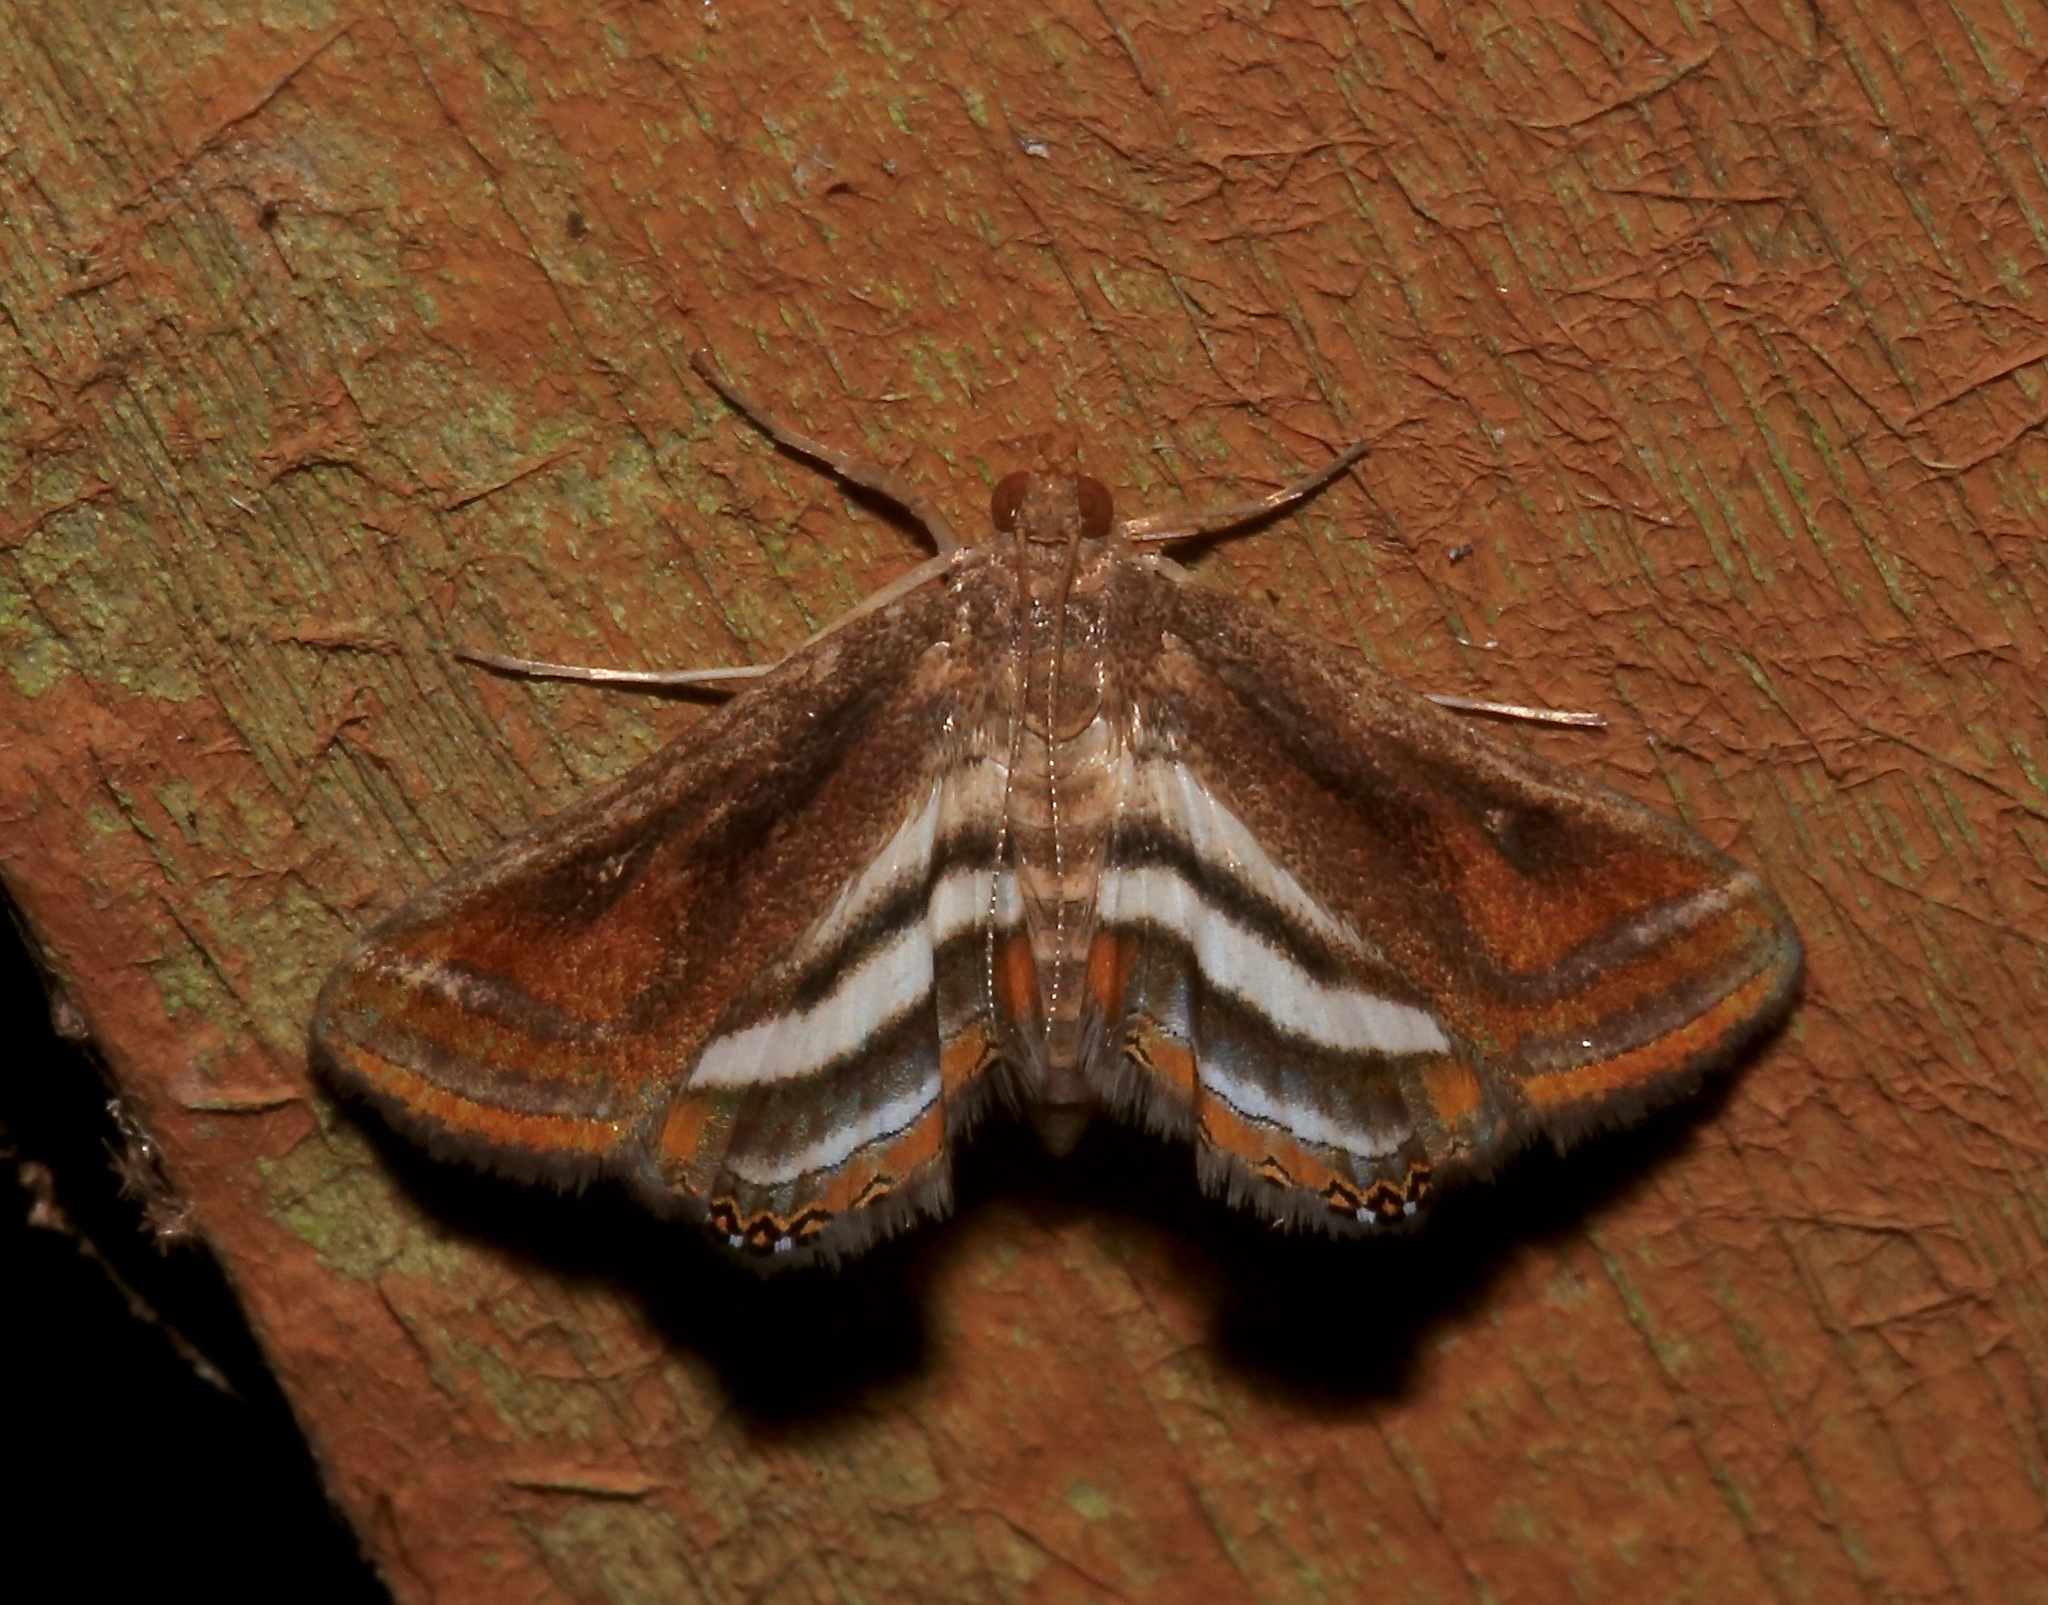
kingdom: Animalia
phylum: Arthropoda
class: Insecta
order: Lepidoptera
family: Crambidae
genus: Parapoynx
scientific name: Parapoynx seminealis
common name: Floating-heart waterlily leafcutter
